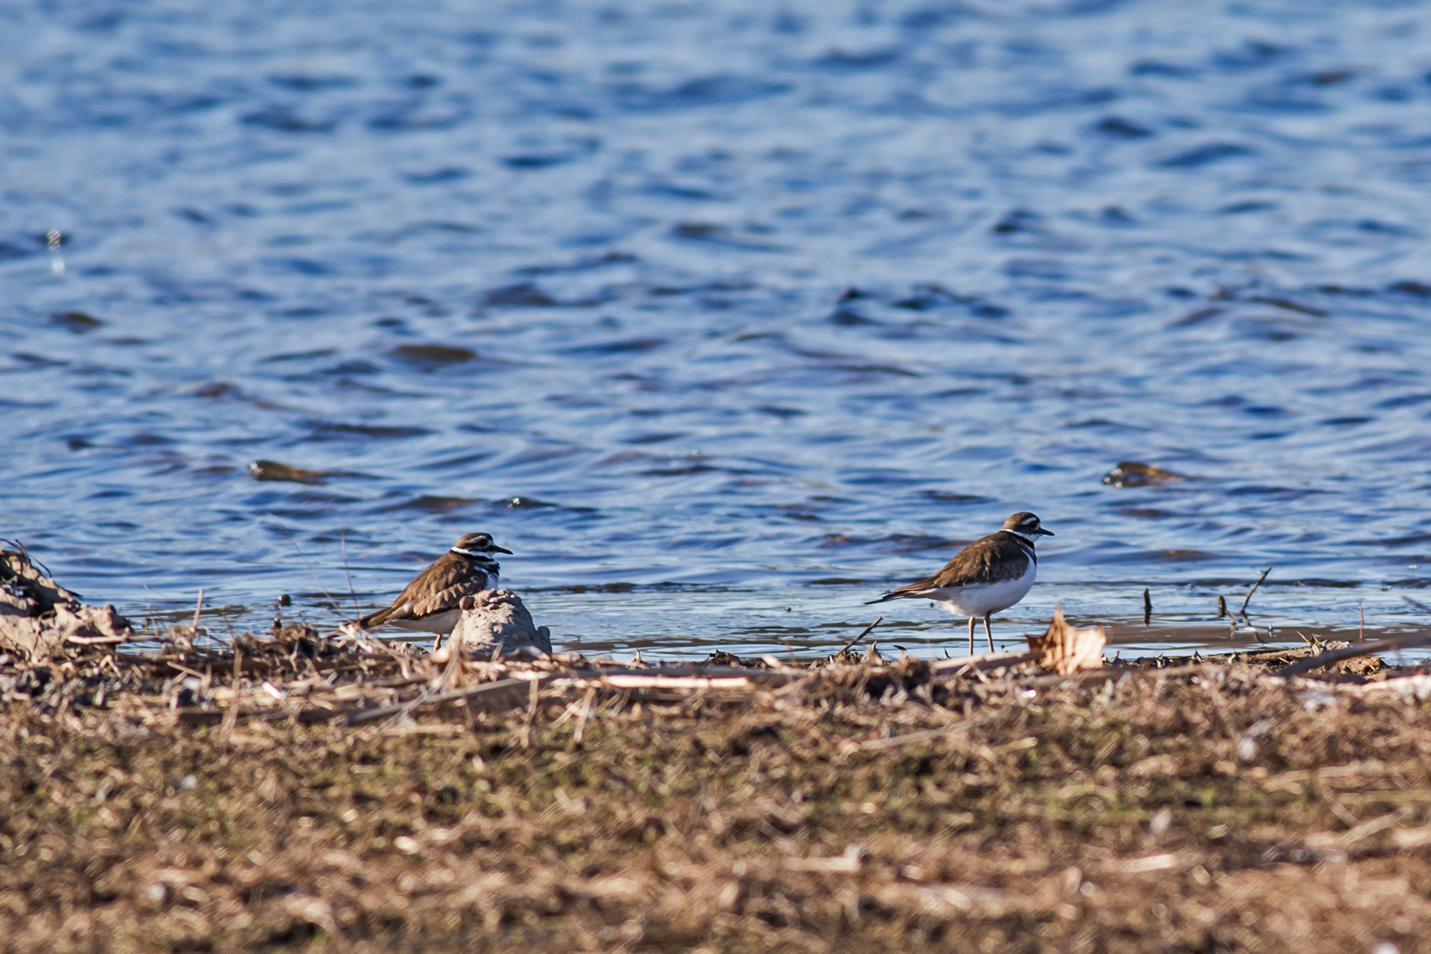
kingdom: Animalia
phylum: Chordata
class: Aves
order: Charadriiformes
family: Charadriidae
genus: Charadrius
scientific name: Charadrius vociferus
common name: Killdeer
